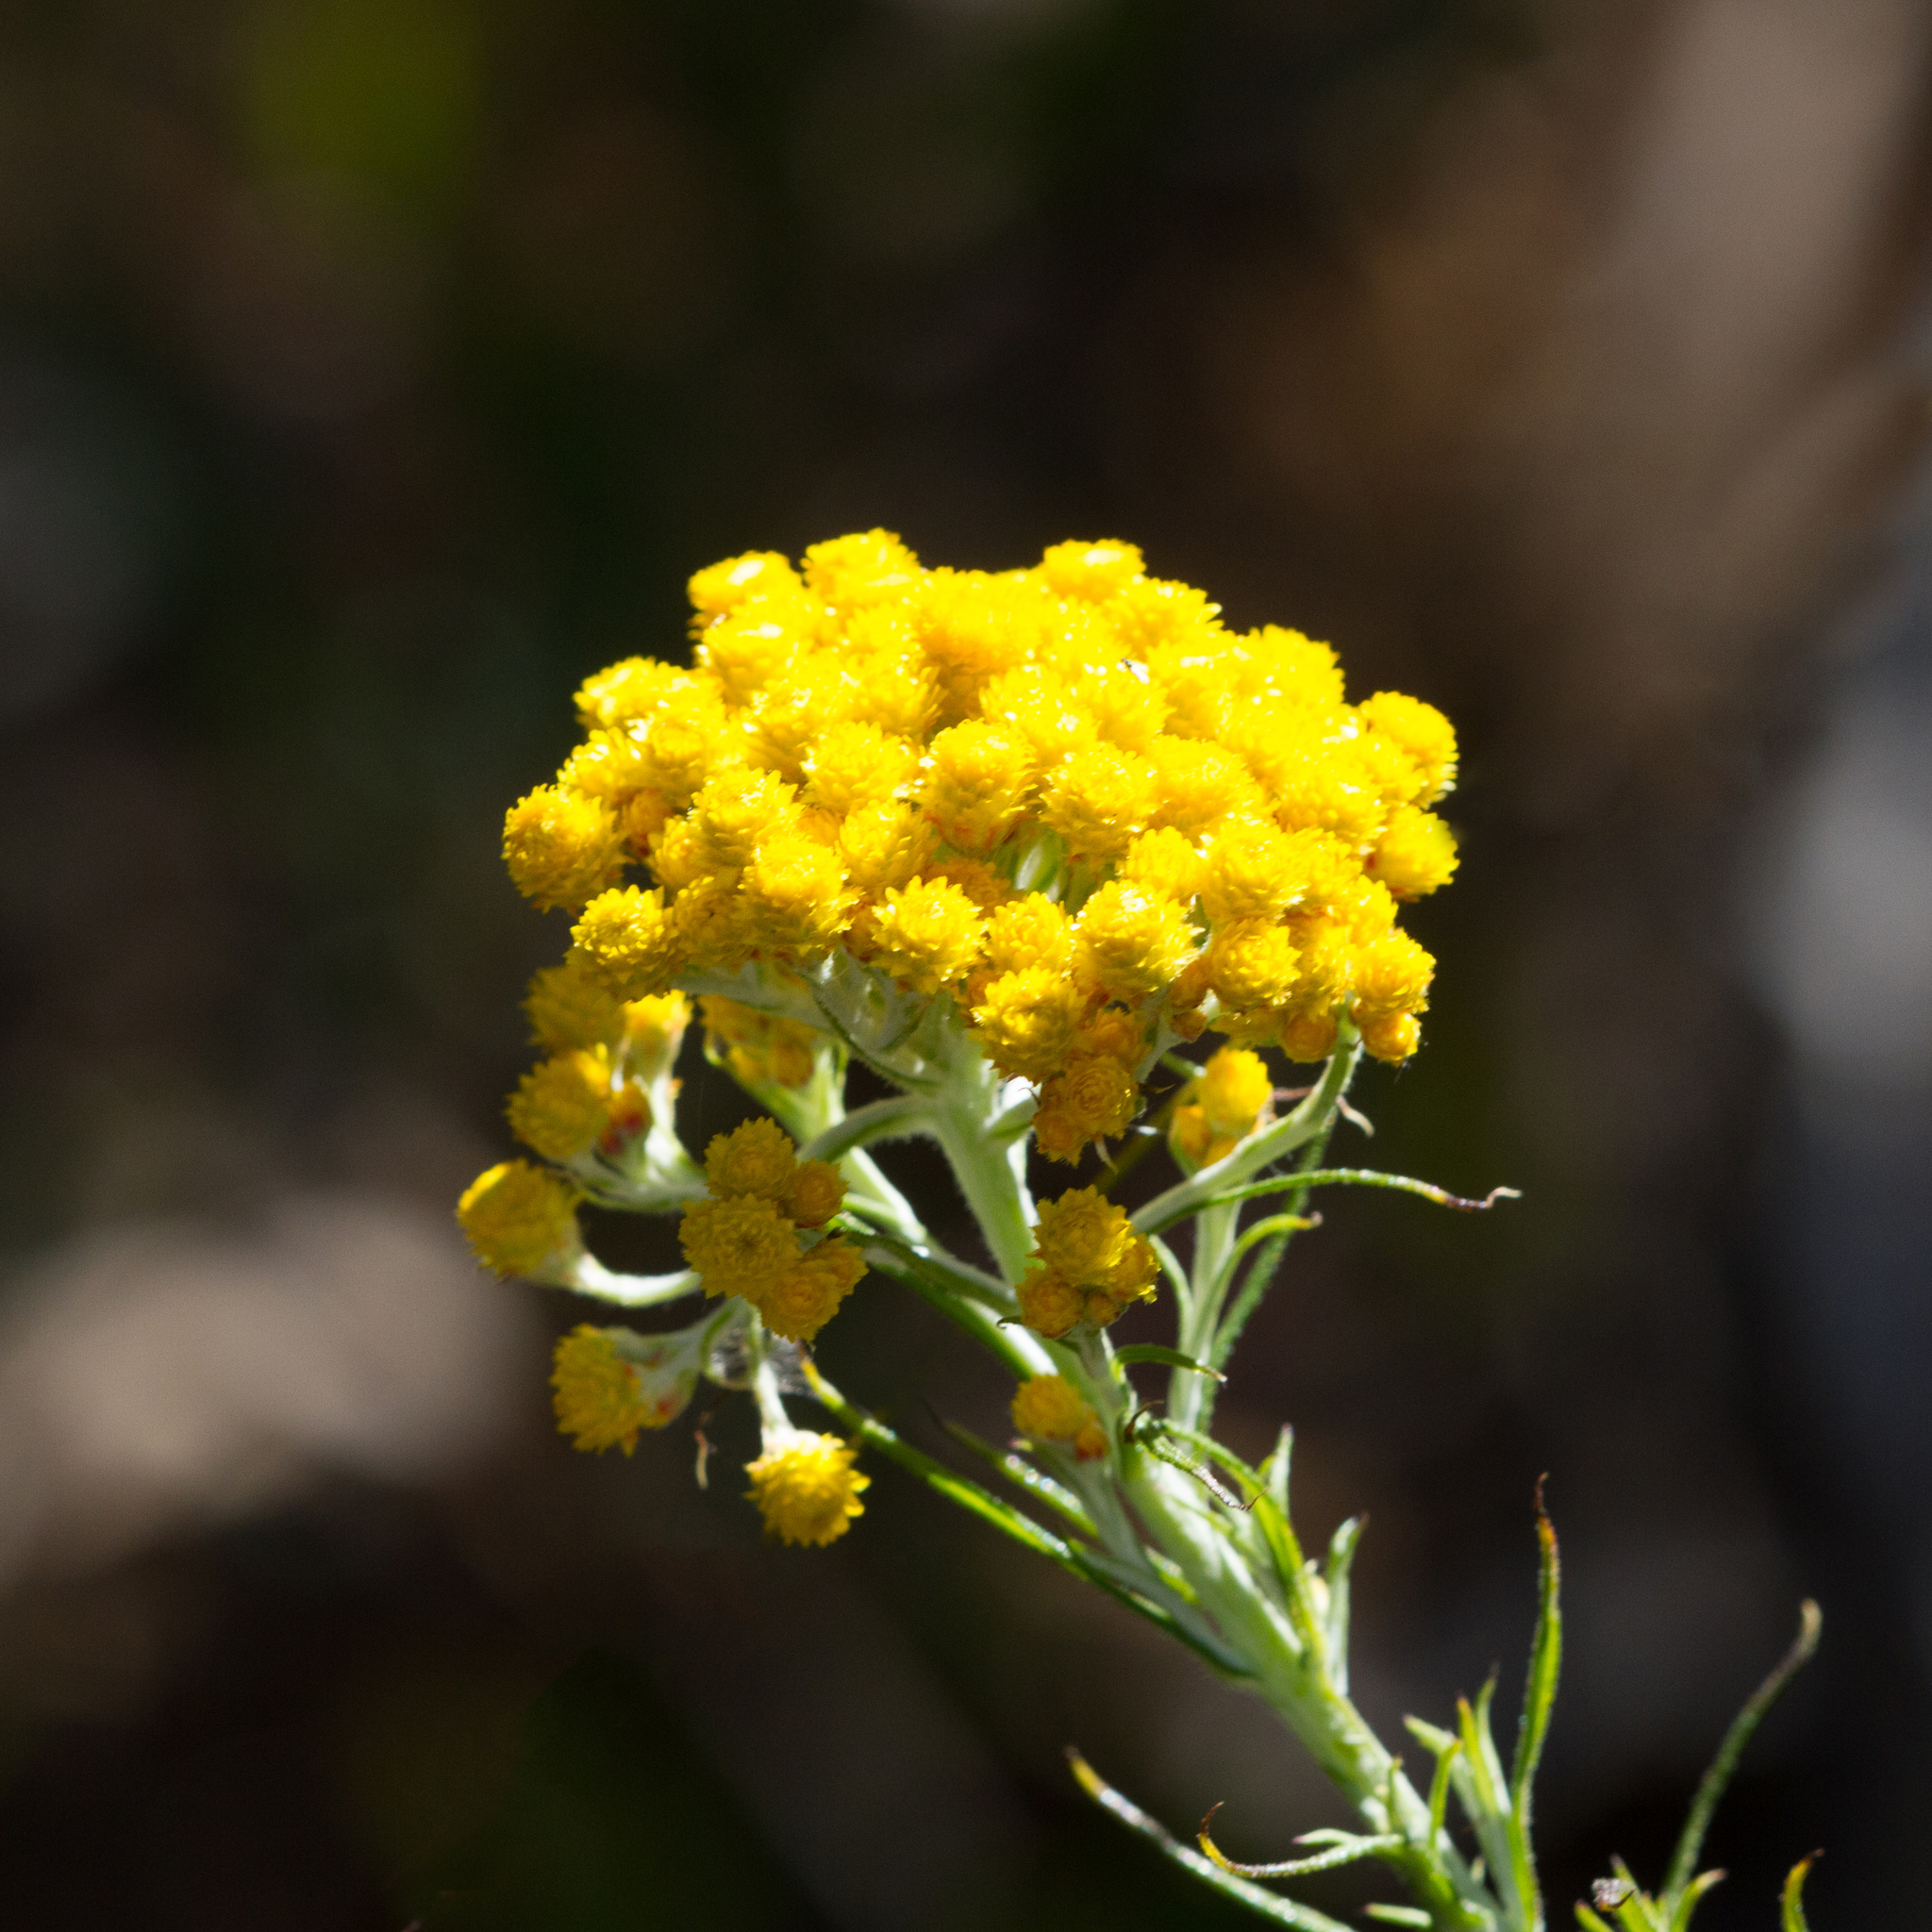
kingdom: Plantae
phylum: Tracheophyta
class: Magnoliopsida
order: Asterales
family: Asteraceae
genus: Chrysocephalum
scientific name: Chrysocephalum semipapposum
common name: Clustered everlasting
